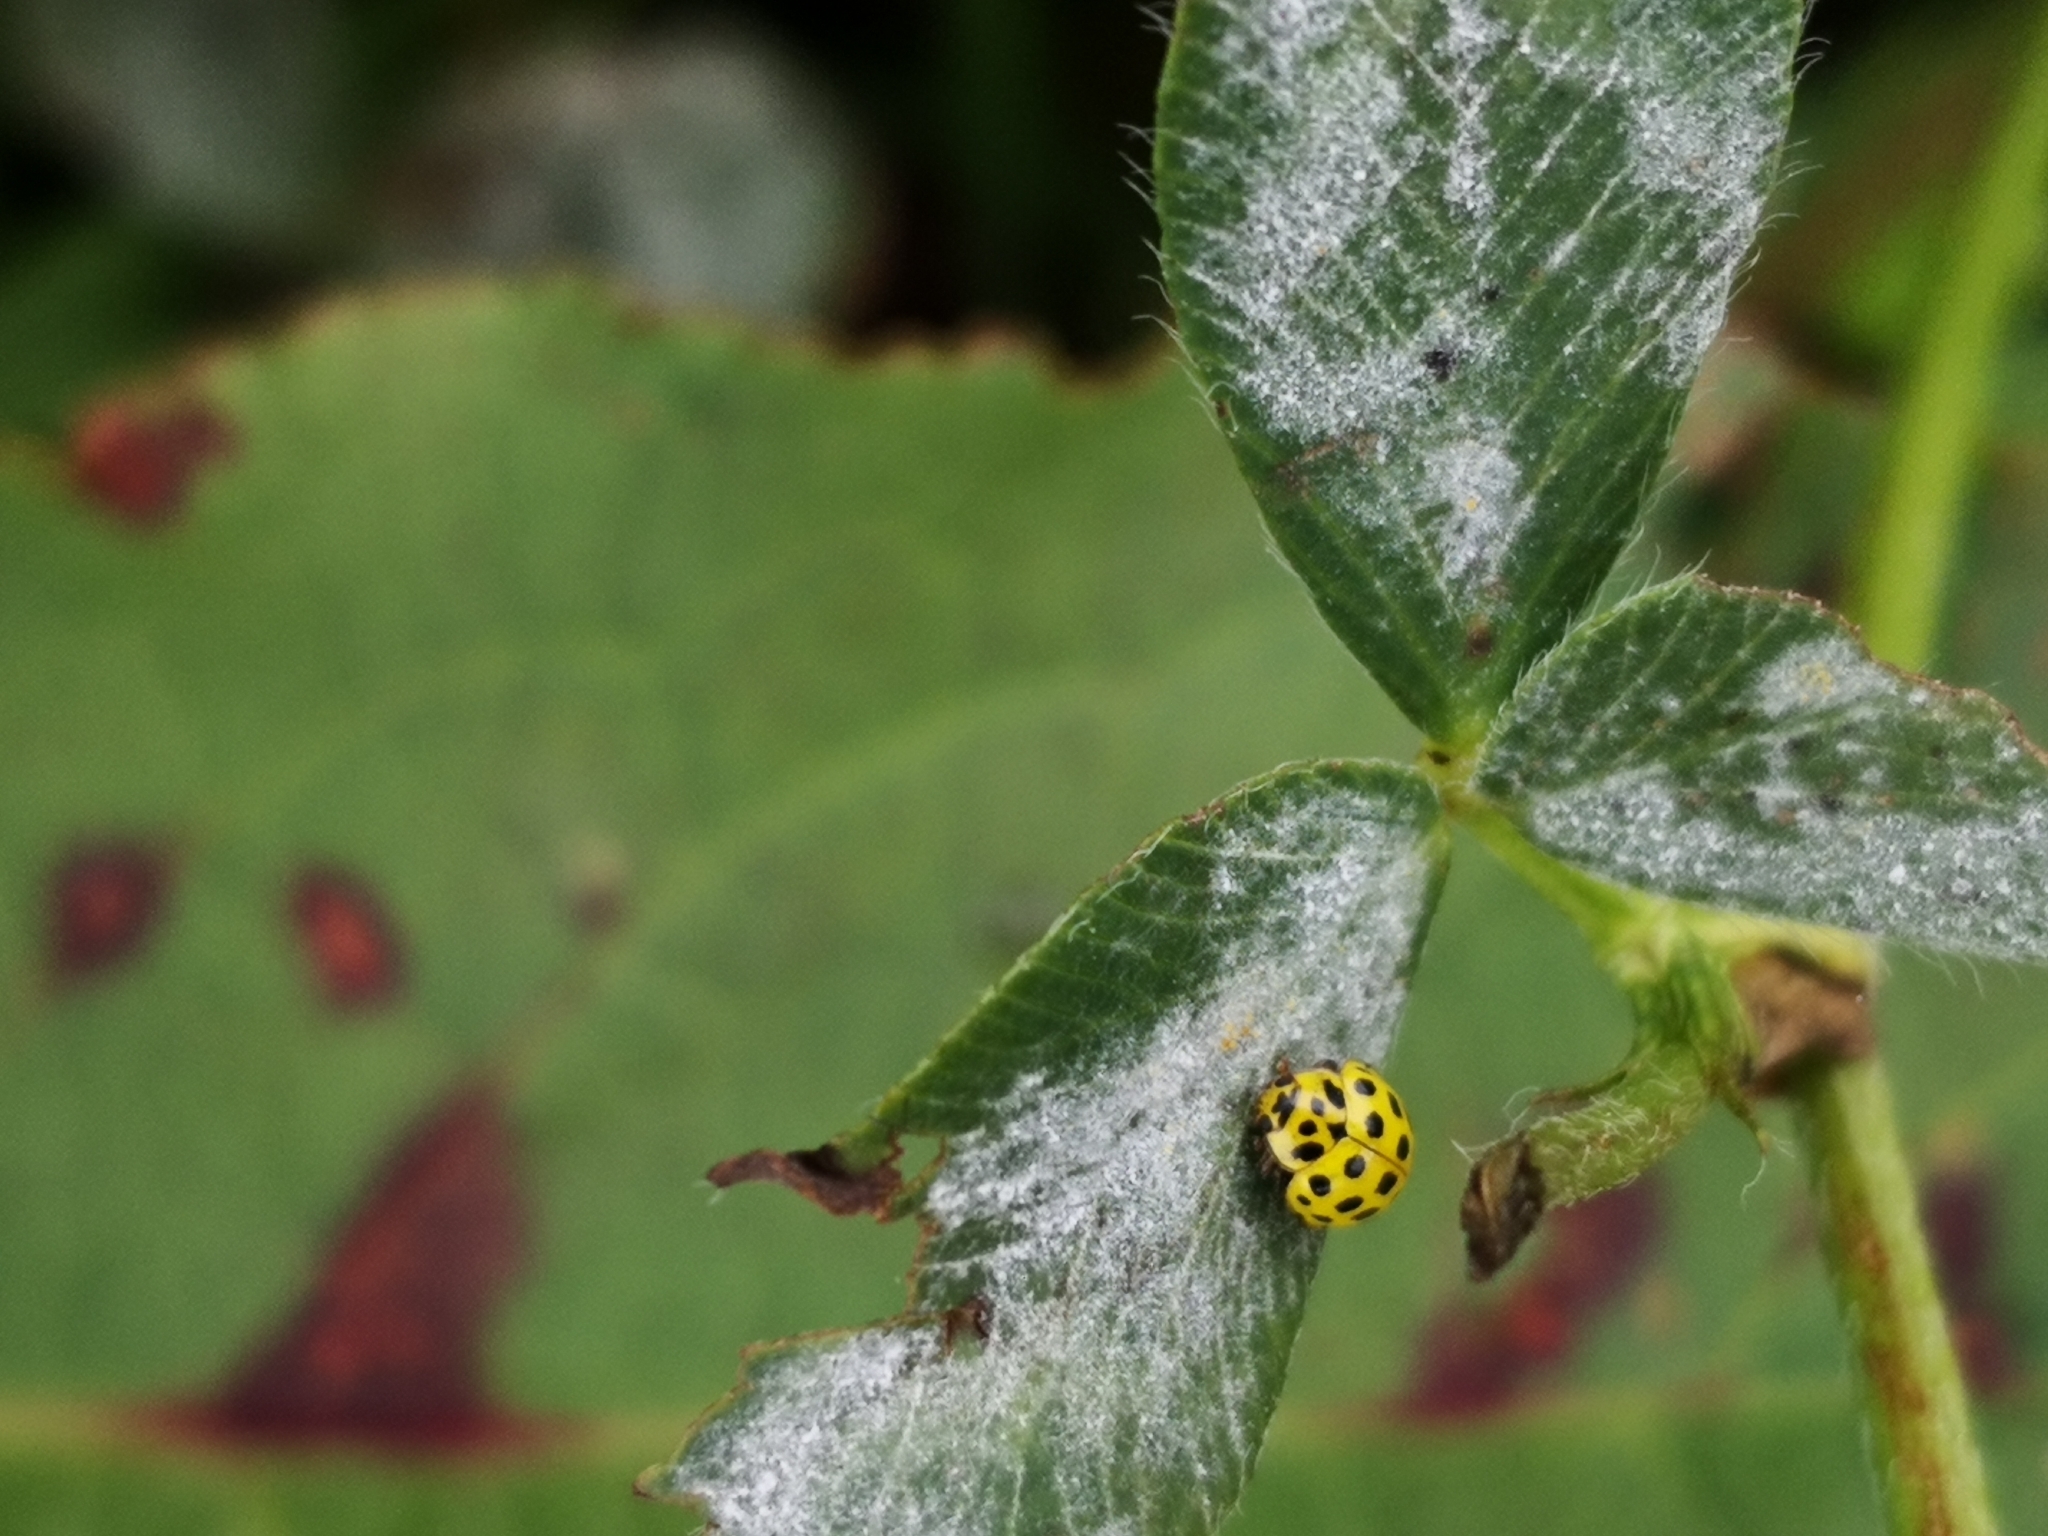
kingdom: Animalia
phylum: Arthropoda
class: Insecta
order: Coleoptera
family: Coccinellidae
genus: Psyllobora
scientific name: Psyllobora vigintiduopunctata
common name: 22-spot ladybird
